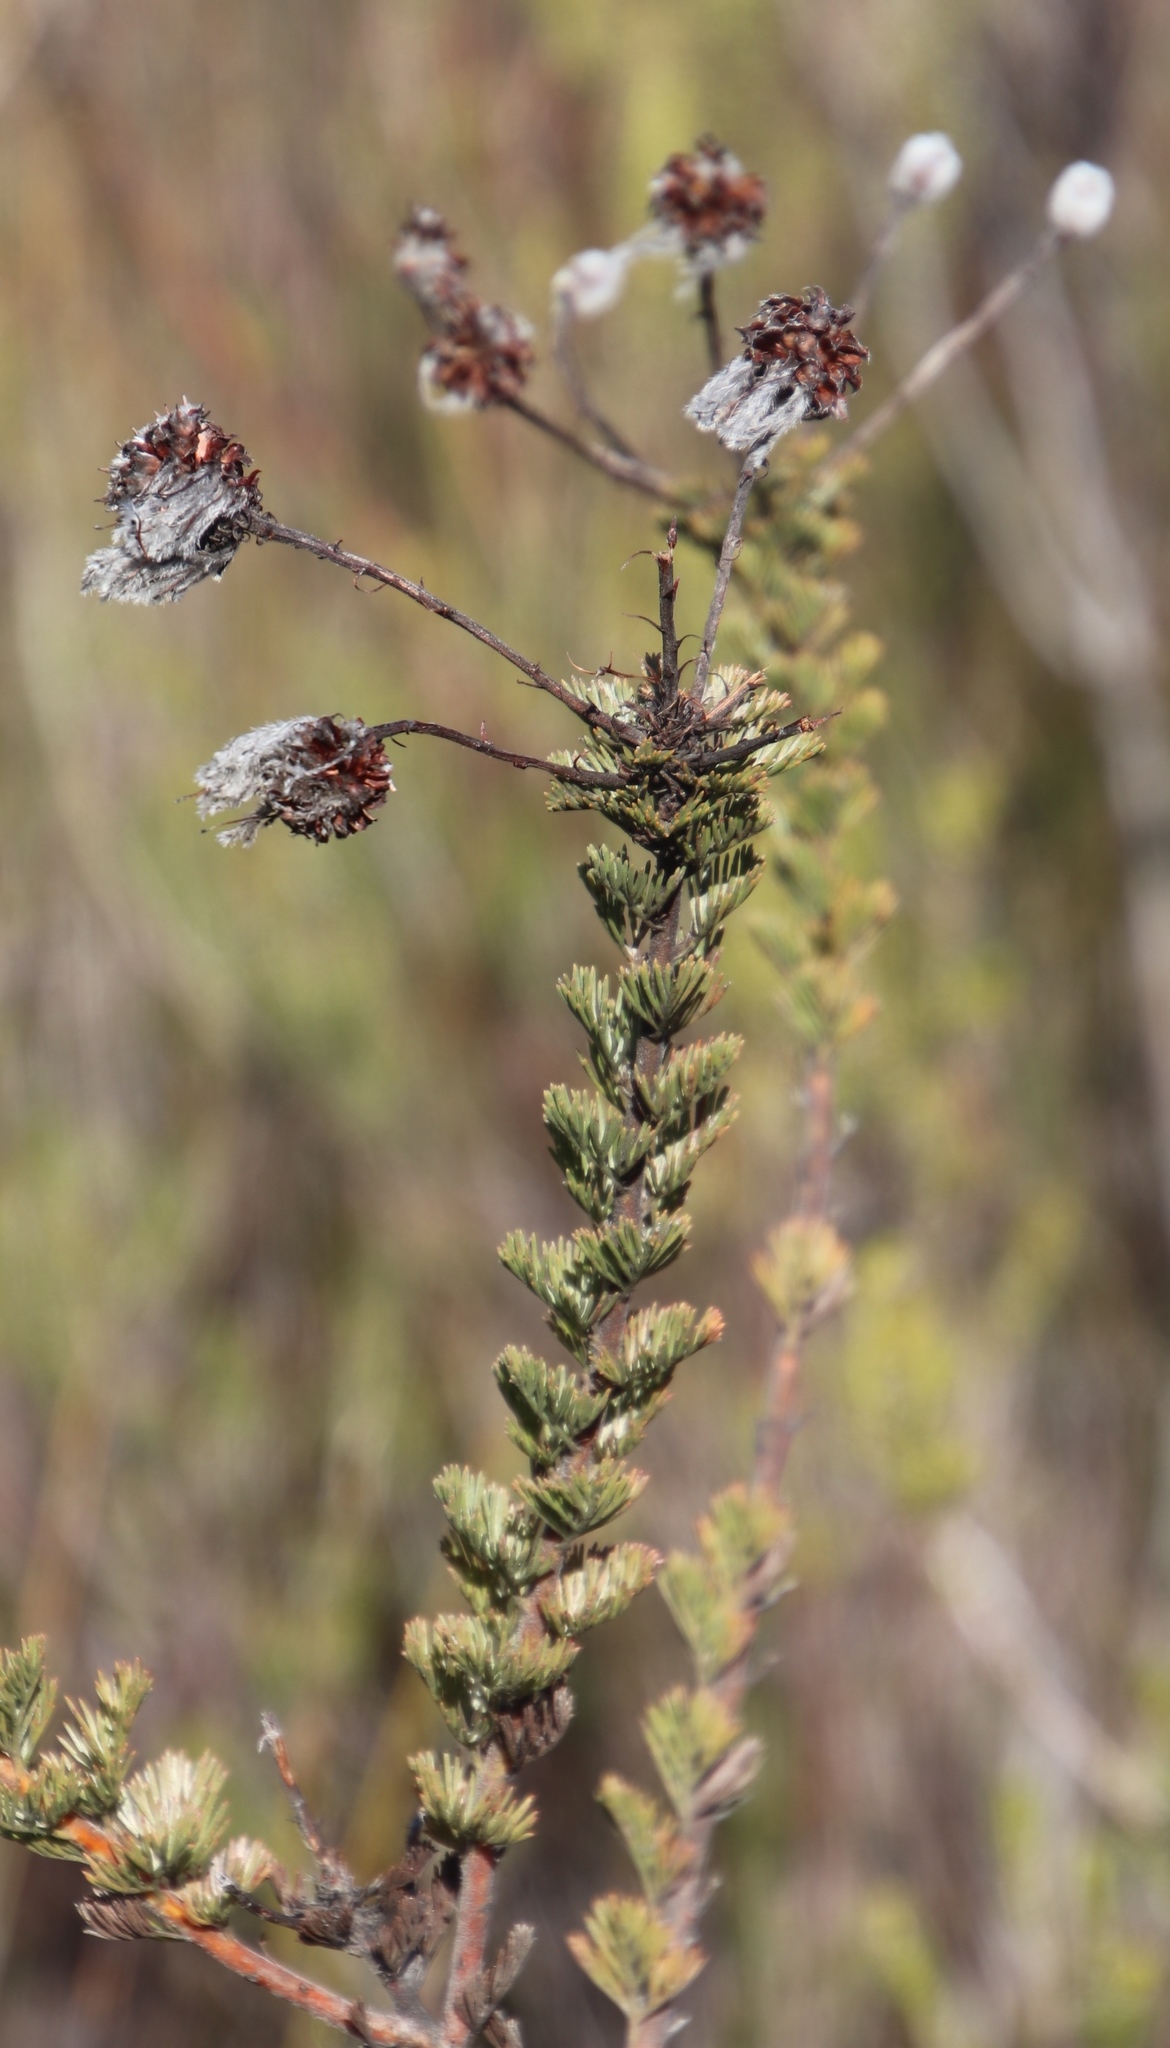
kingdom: Plantae
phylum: Tracheophyta
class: Magnoliopsida
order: Proteales
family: Proteaceae
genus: Serruria
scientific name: Serruria reflexa
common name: Milky spiderhead
